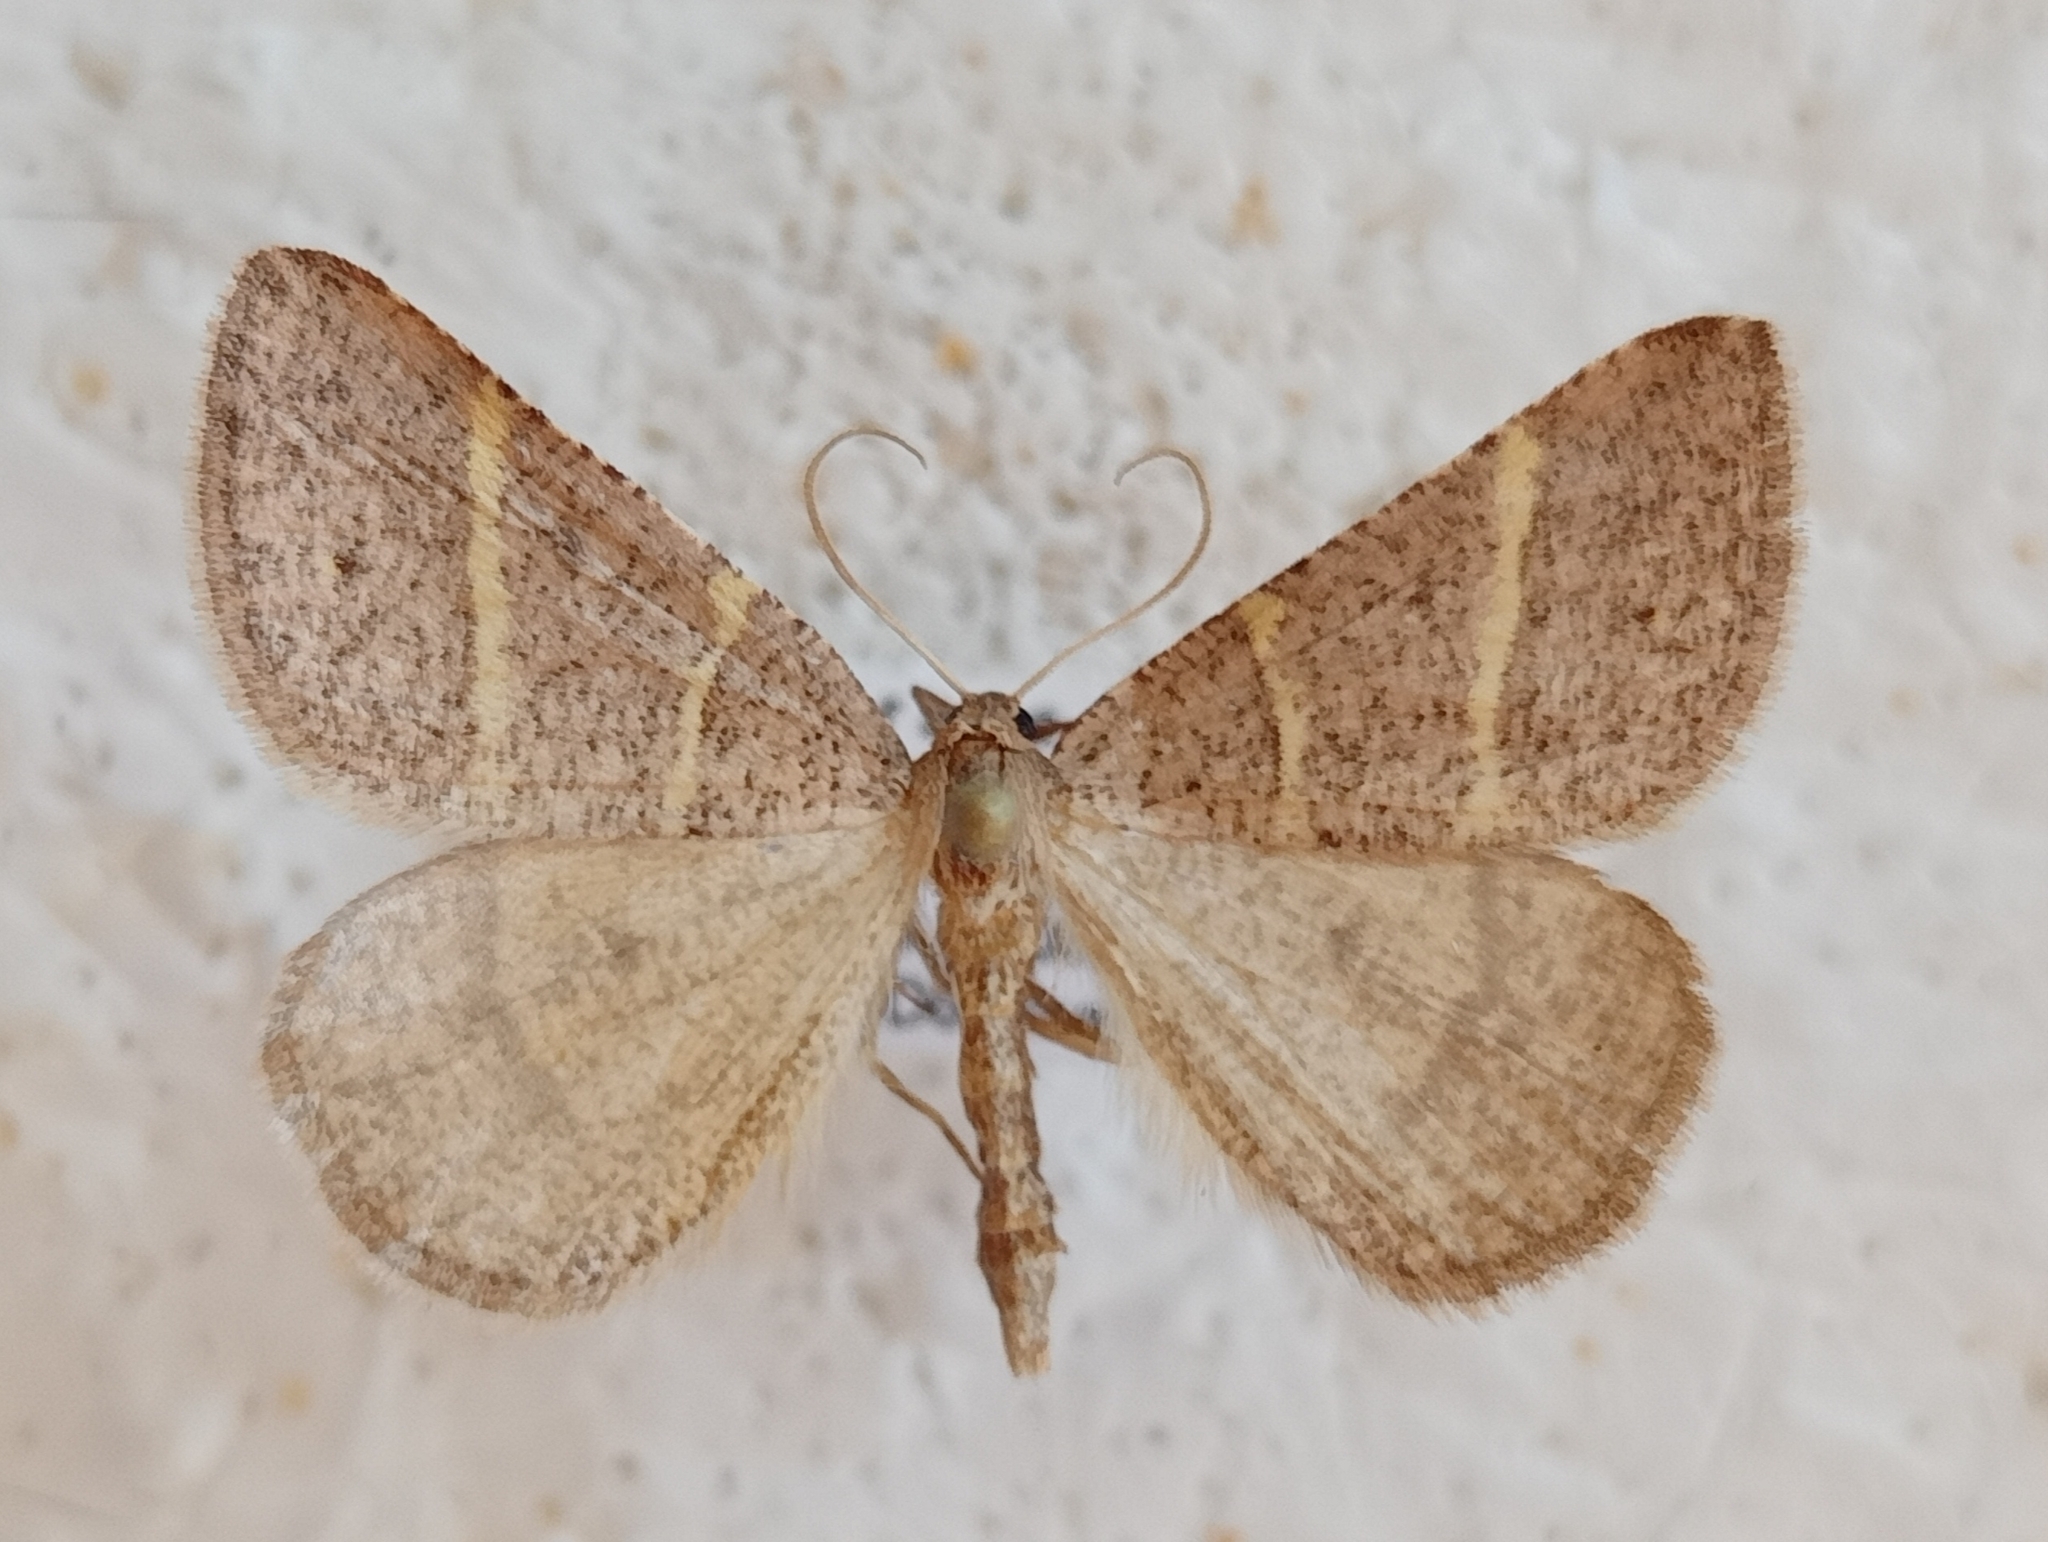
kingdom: Animalia
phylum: Arthropoda
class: Insecta
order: Lepidoptera
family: Pterophoridae
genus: Pterophorus
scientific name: Pterophorus Petrophora narbonea
